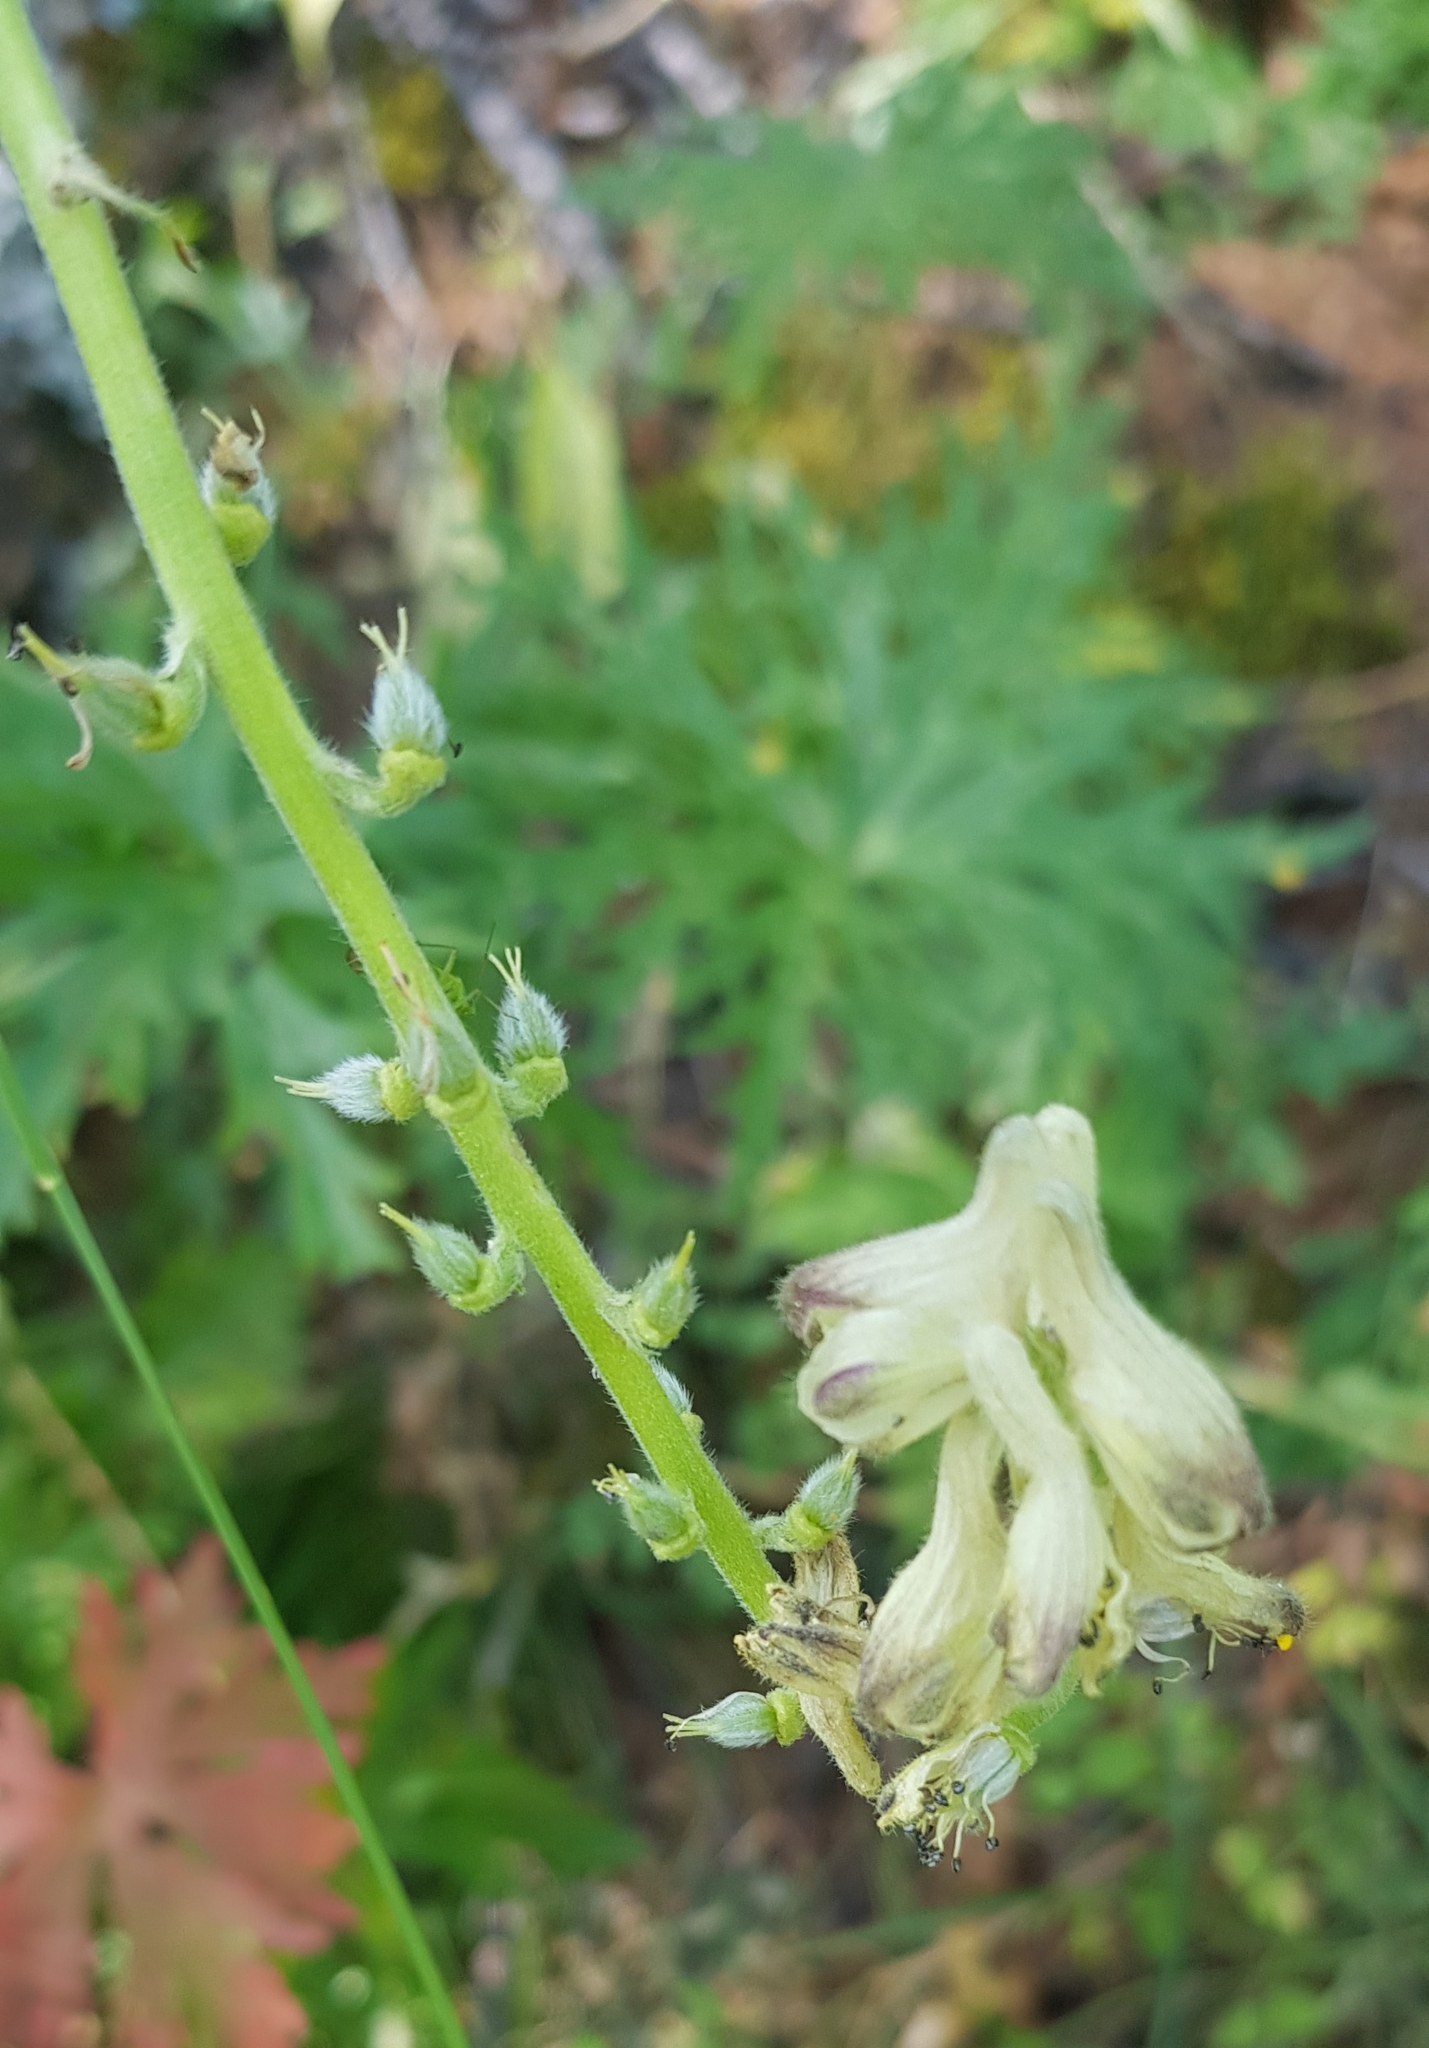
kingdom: Plantae
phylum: Tracheophyta
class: Magnoliopsida
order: Ranunculales
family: Ranunculaceae
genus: Aconitum
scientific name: Aconitum barbatum
